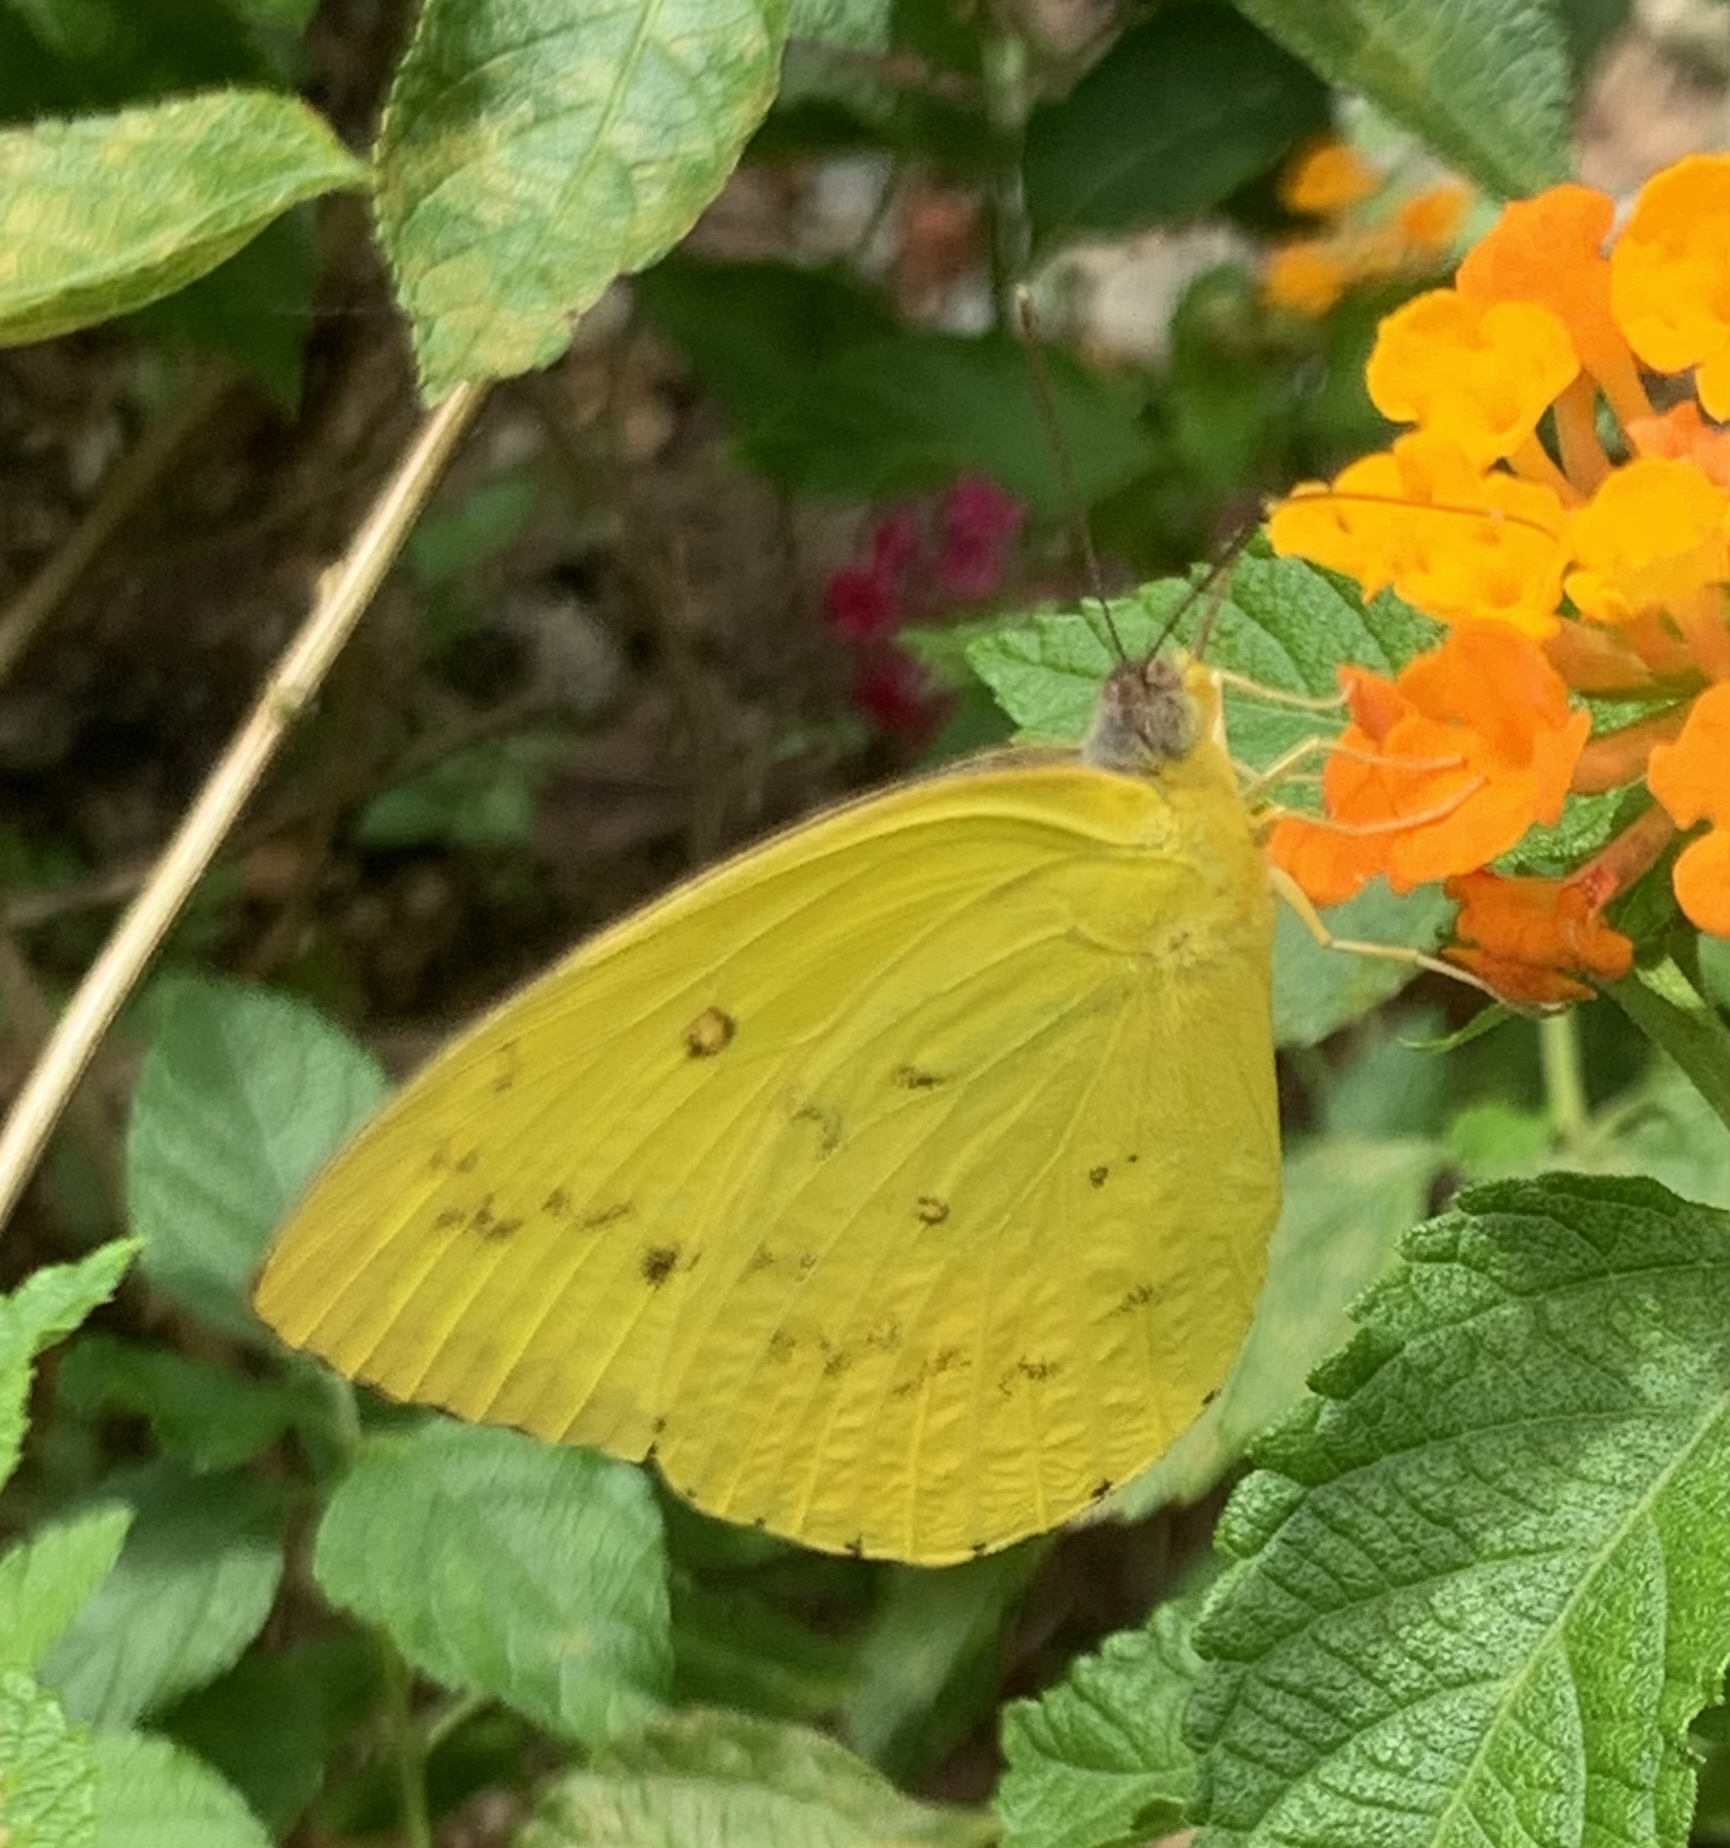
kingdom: Animalia
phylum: Arthropoda
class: Insecta
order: Lepidoptera
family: Pieridae
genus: Catopsilia
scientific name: Catopsilia scylla
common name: Orange emigrant
